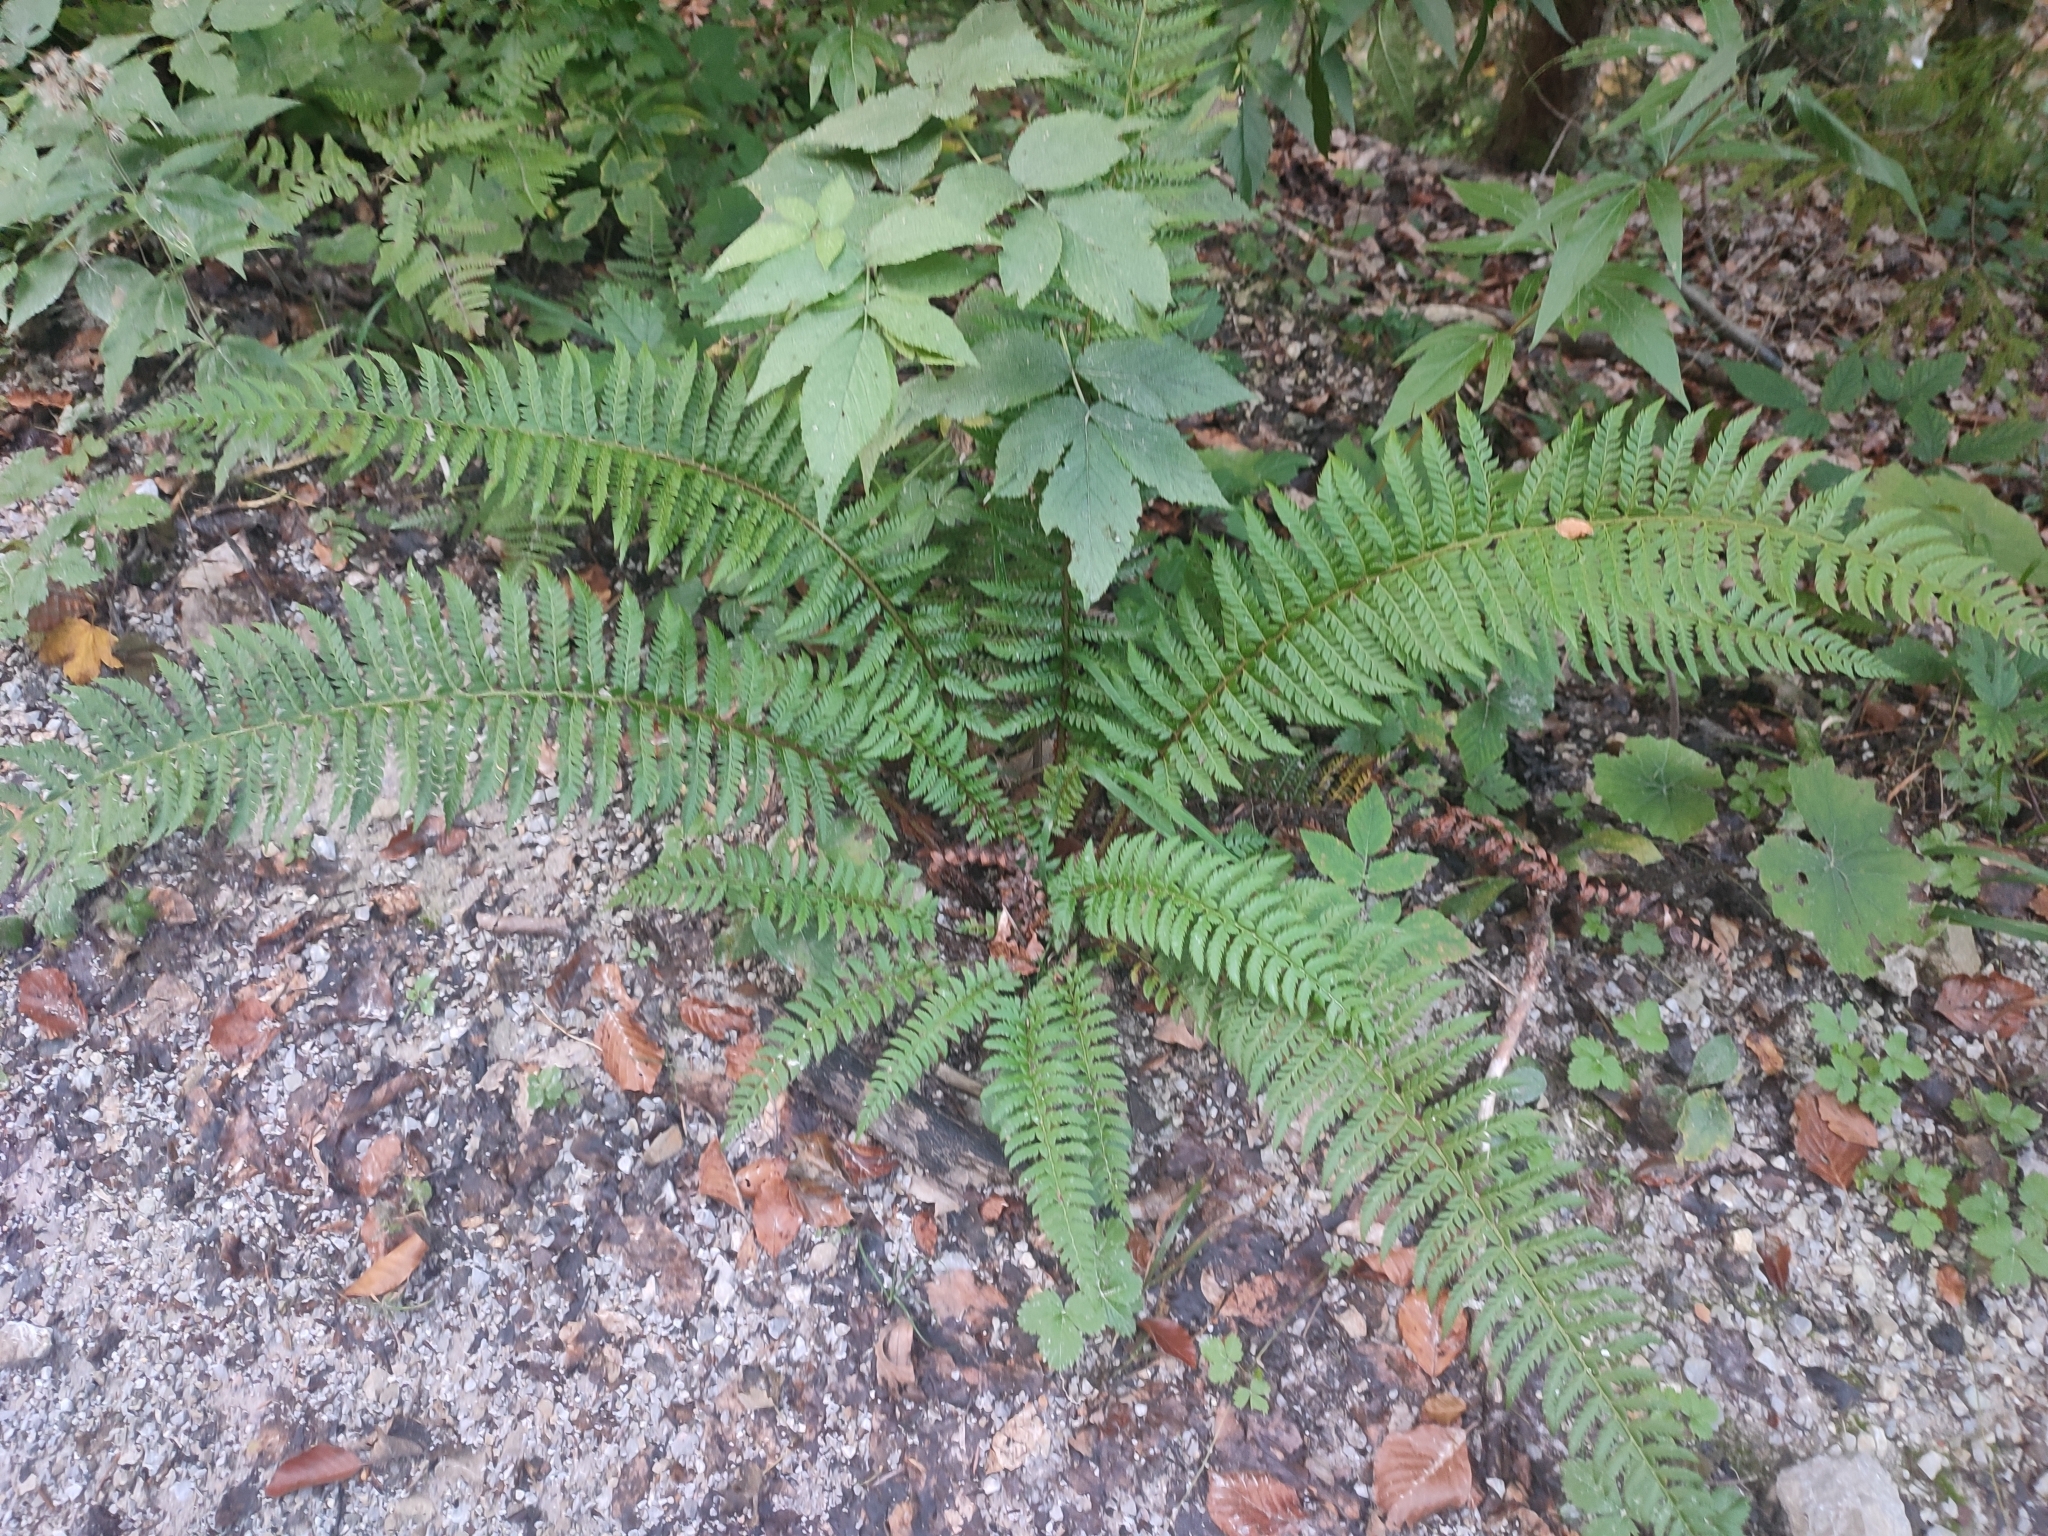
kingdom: Plantae
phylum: Tracheophyta
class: Polypodiopsida
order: Polypodiales
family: Dryopteridaceae
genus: Polystichum
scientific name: Polystichum aculeatum
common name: Hard shield-fern
